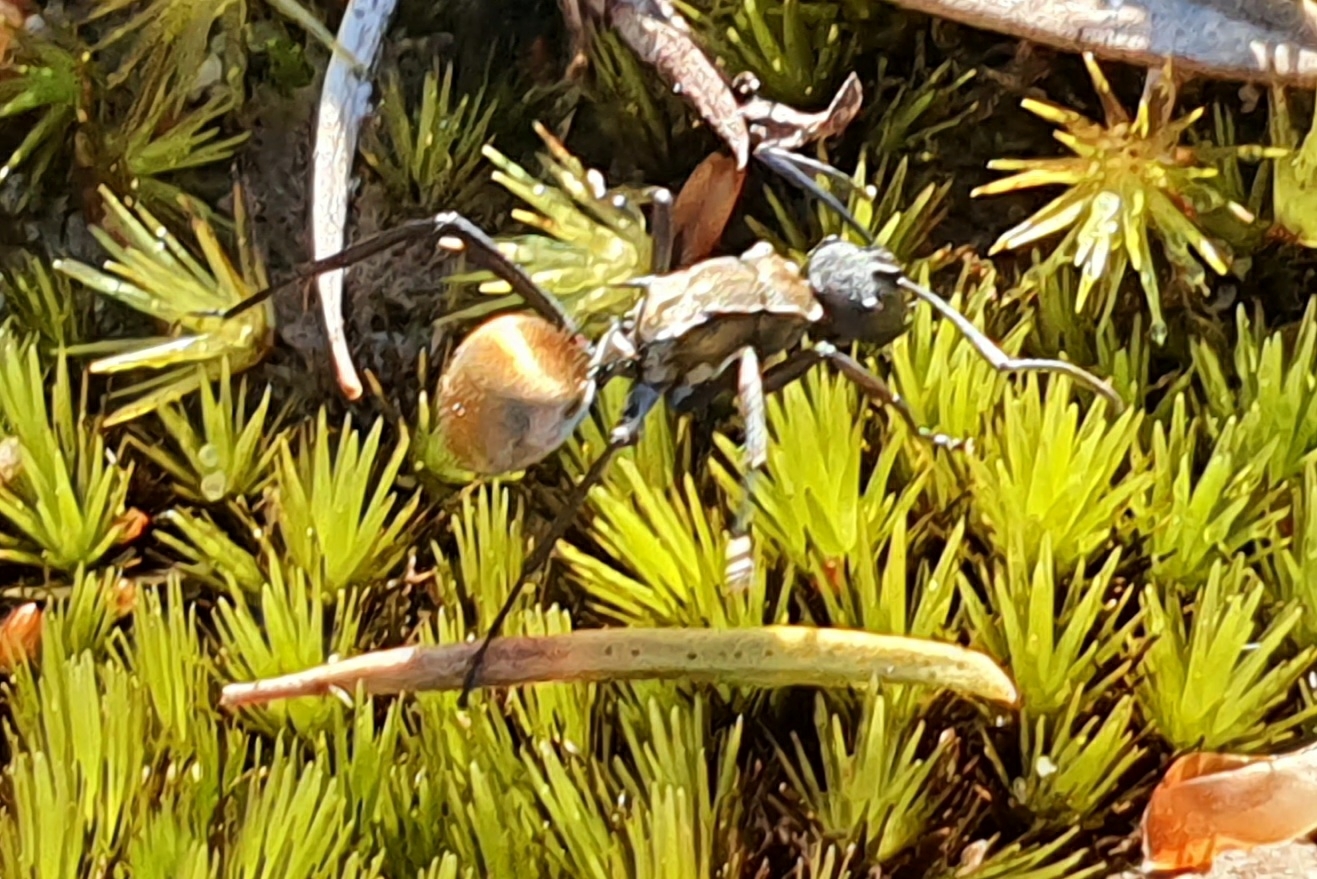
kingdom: Animalia
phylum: Arthropoda
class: Insecta
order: Hymenoptera
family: Formicidae
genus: Polyrhachis
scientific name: Polyrhachis ammon
